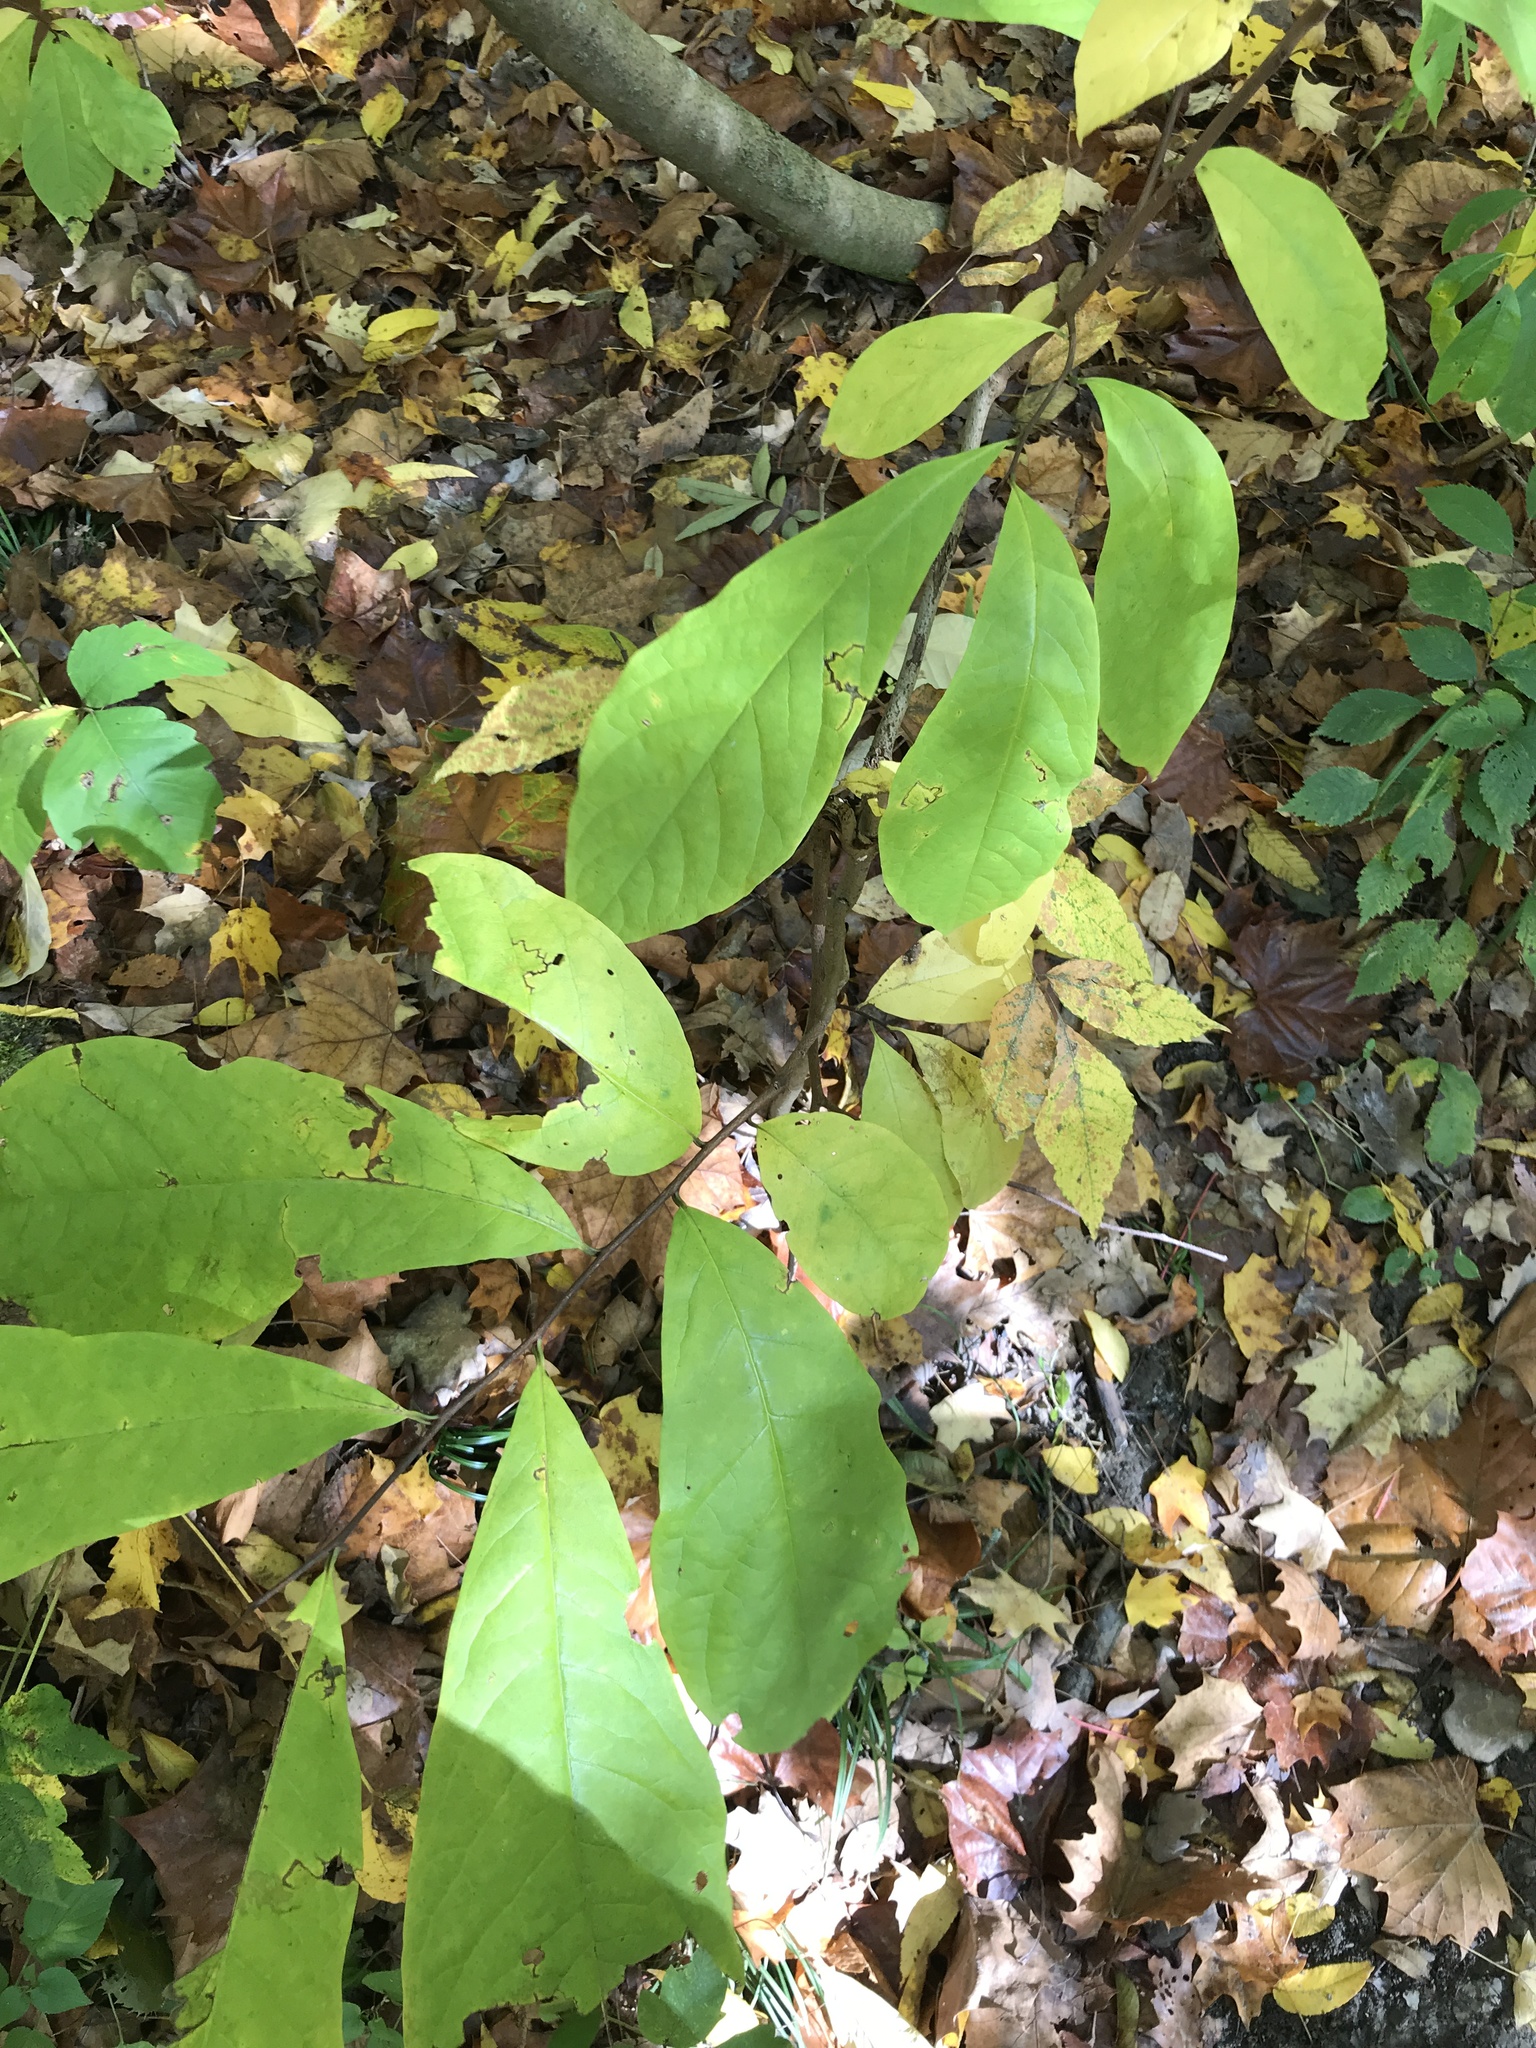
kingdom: Plantae
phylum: Tracheophyta
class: Magnoliopsida
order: Magnoliales
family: Annonaceae
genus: Asimina
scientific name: Asimina triloba
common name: Dog-banana
